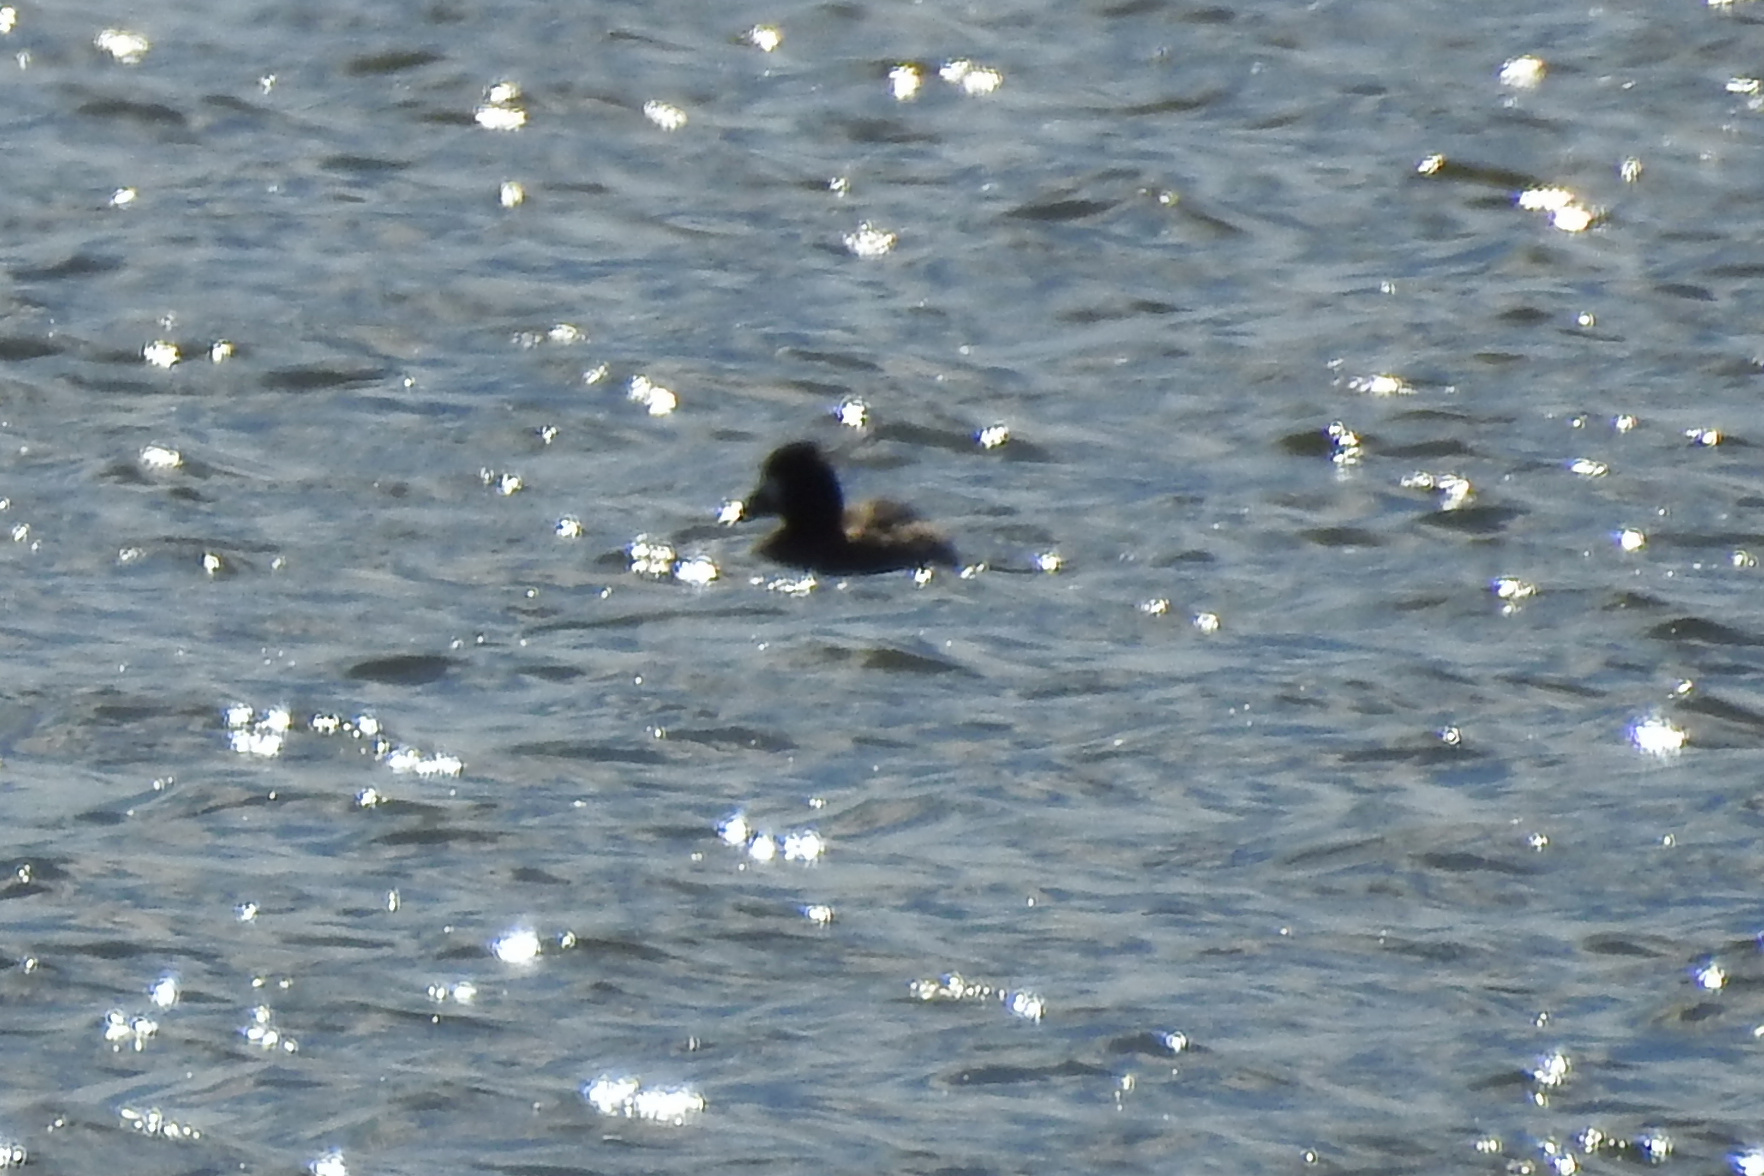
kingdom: Animalia
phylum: Chordata
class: Aves
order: Anseriformes
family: Anatidae
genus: Aythya
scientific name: Aythya affinis
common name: Lesser scaup
